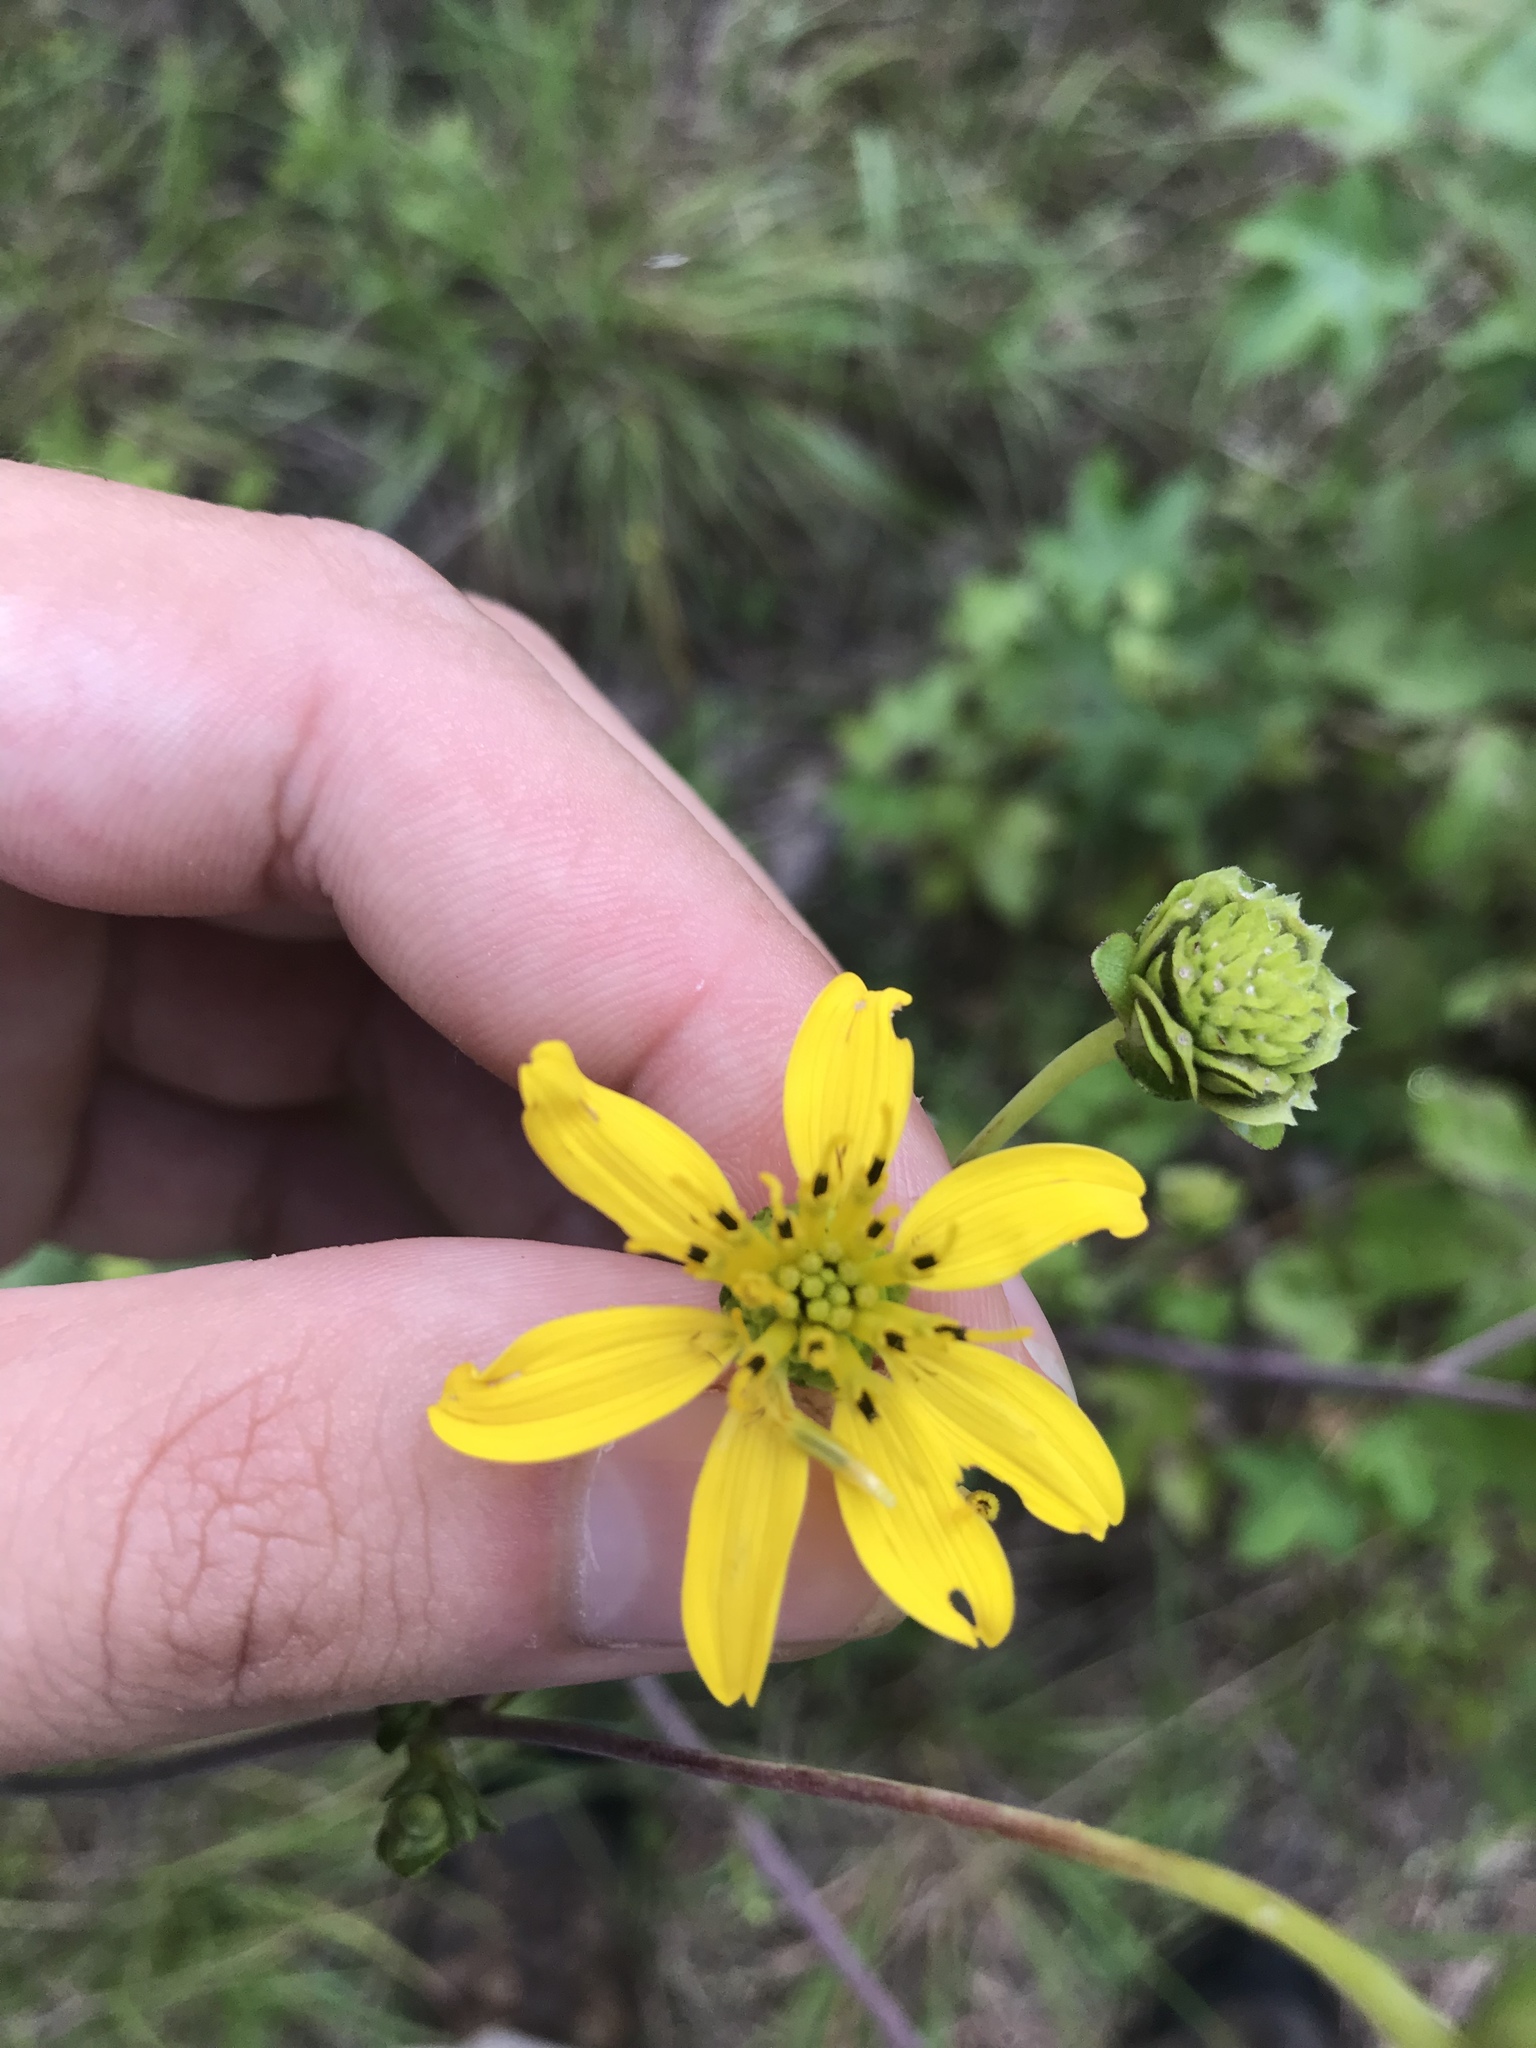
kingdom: Plantae
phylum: Tracheophyta
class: Magnoliopsida
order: Asterales
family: Asteraceae
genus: Silphium
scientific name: Silphium compositum
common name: Lesser basal-leaf rosinweed
